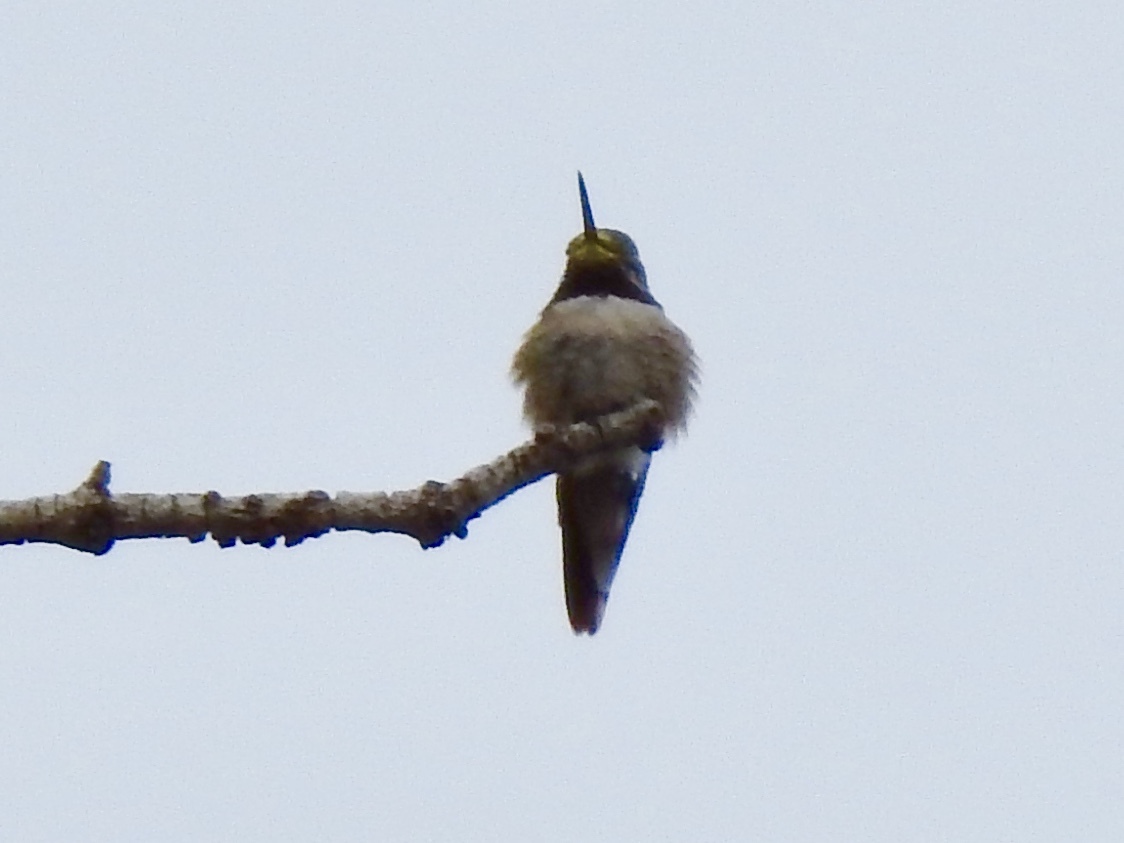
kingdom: Animalia
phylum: Chordata
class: Aves
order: Apodiformes
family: Trochilidae
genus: Selasphorus
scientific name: Selasphorus platycercus
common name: Broad-tailed hummingbird
